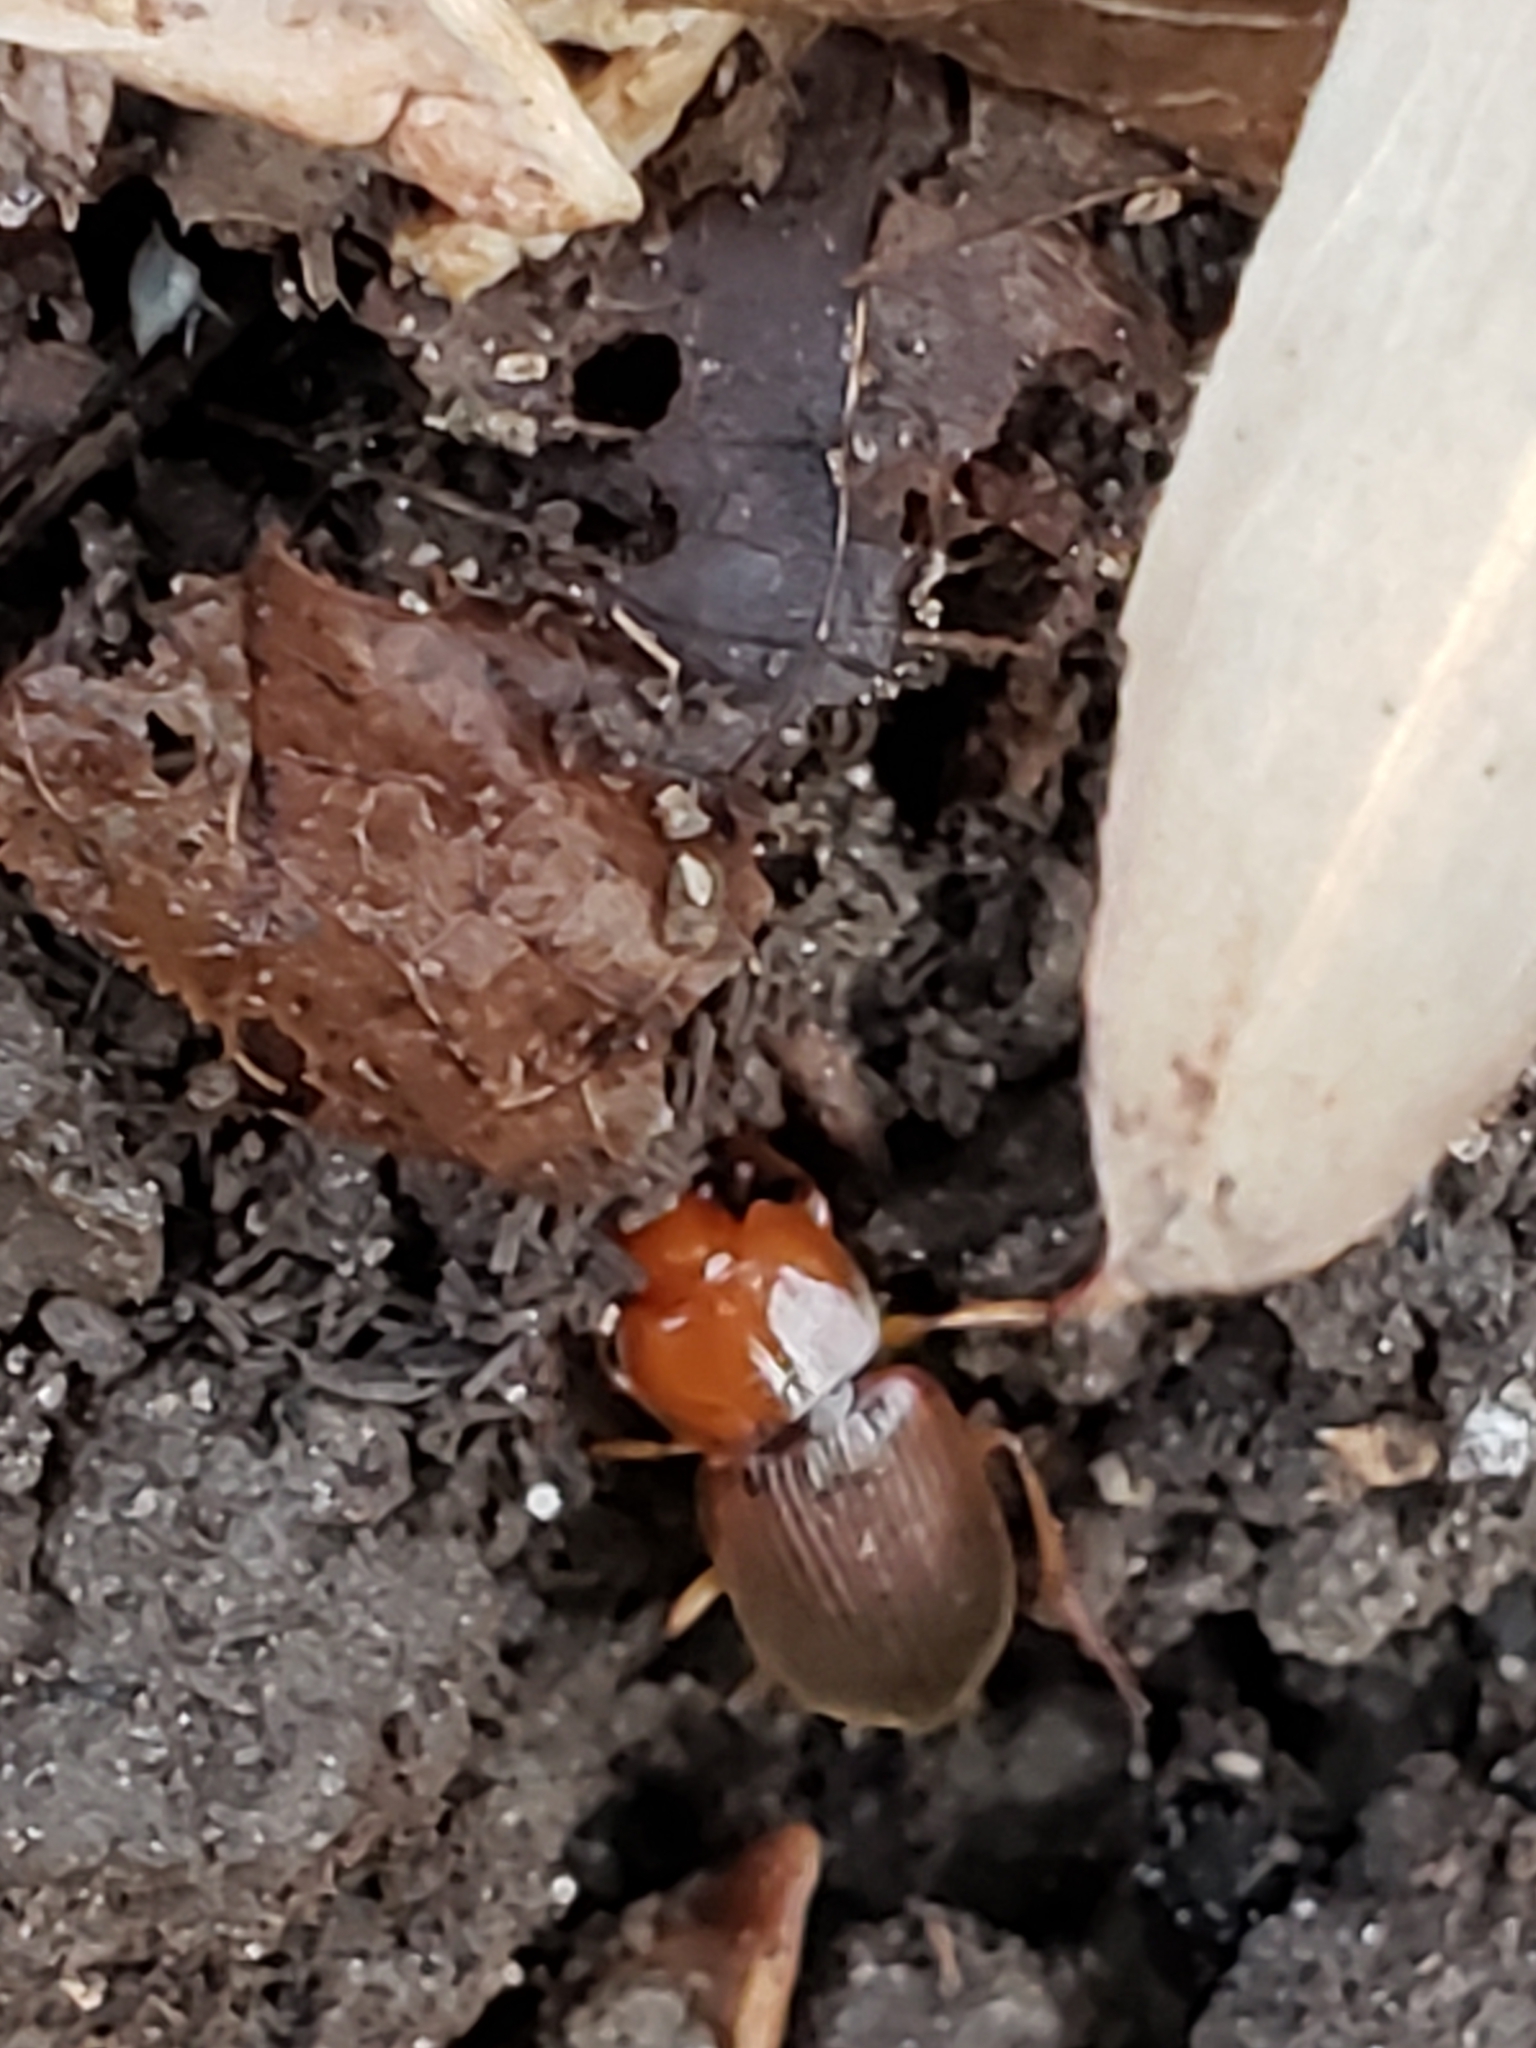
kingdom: Animalia
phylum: Arthropoda
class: Insecta
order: Coleoptera
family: Carabidae
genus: Amphasia
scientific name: Amphasia interstitialis
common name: Red-headed ground beetle
